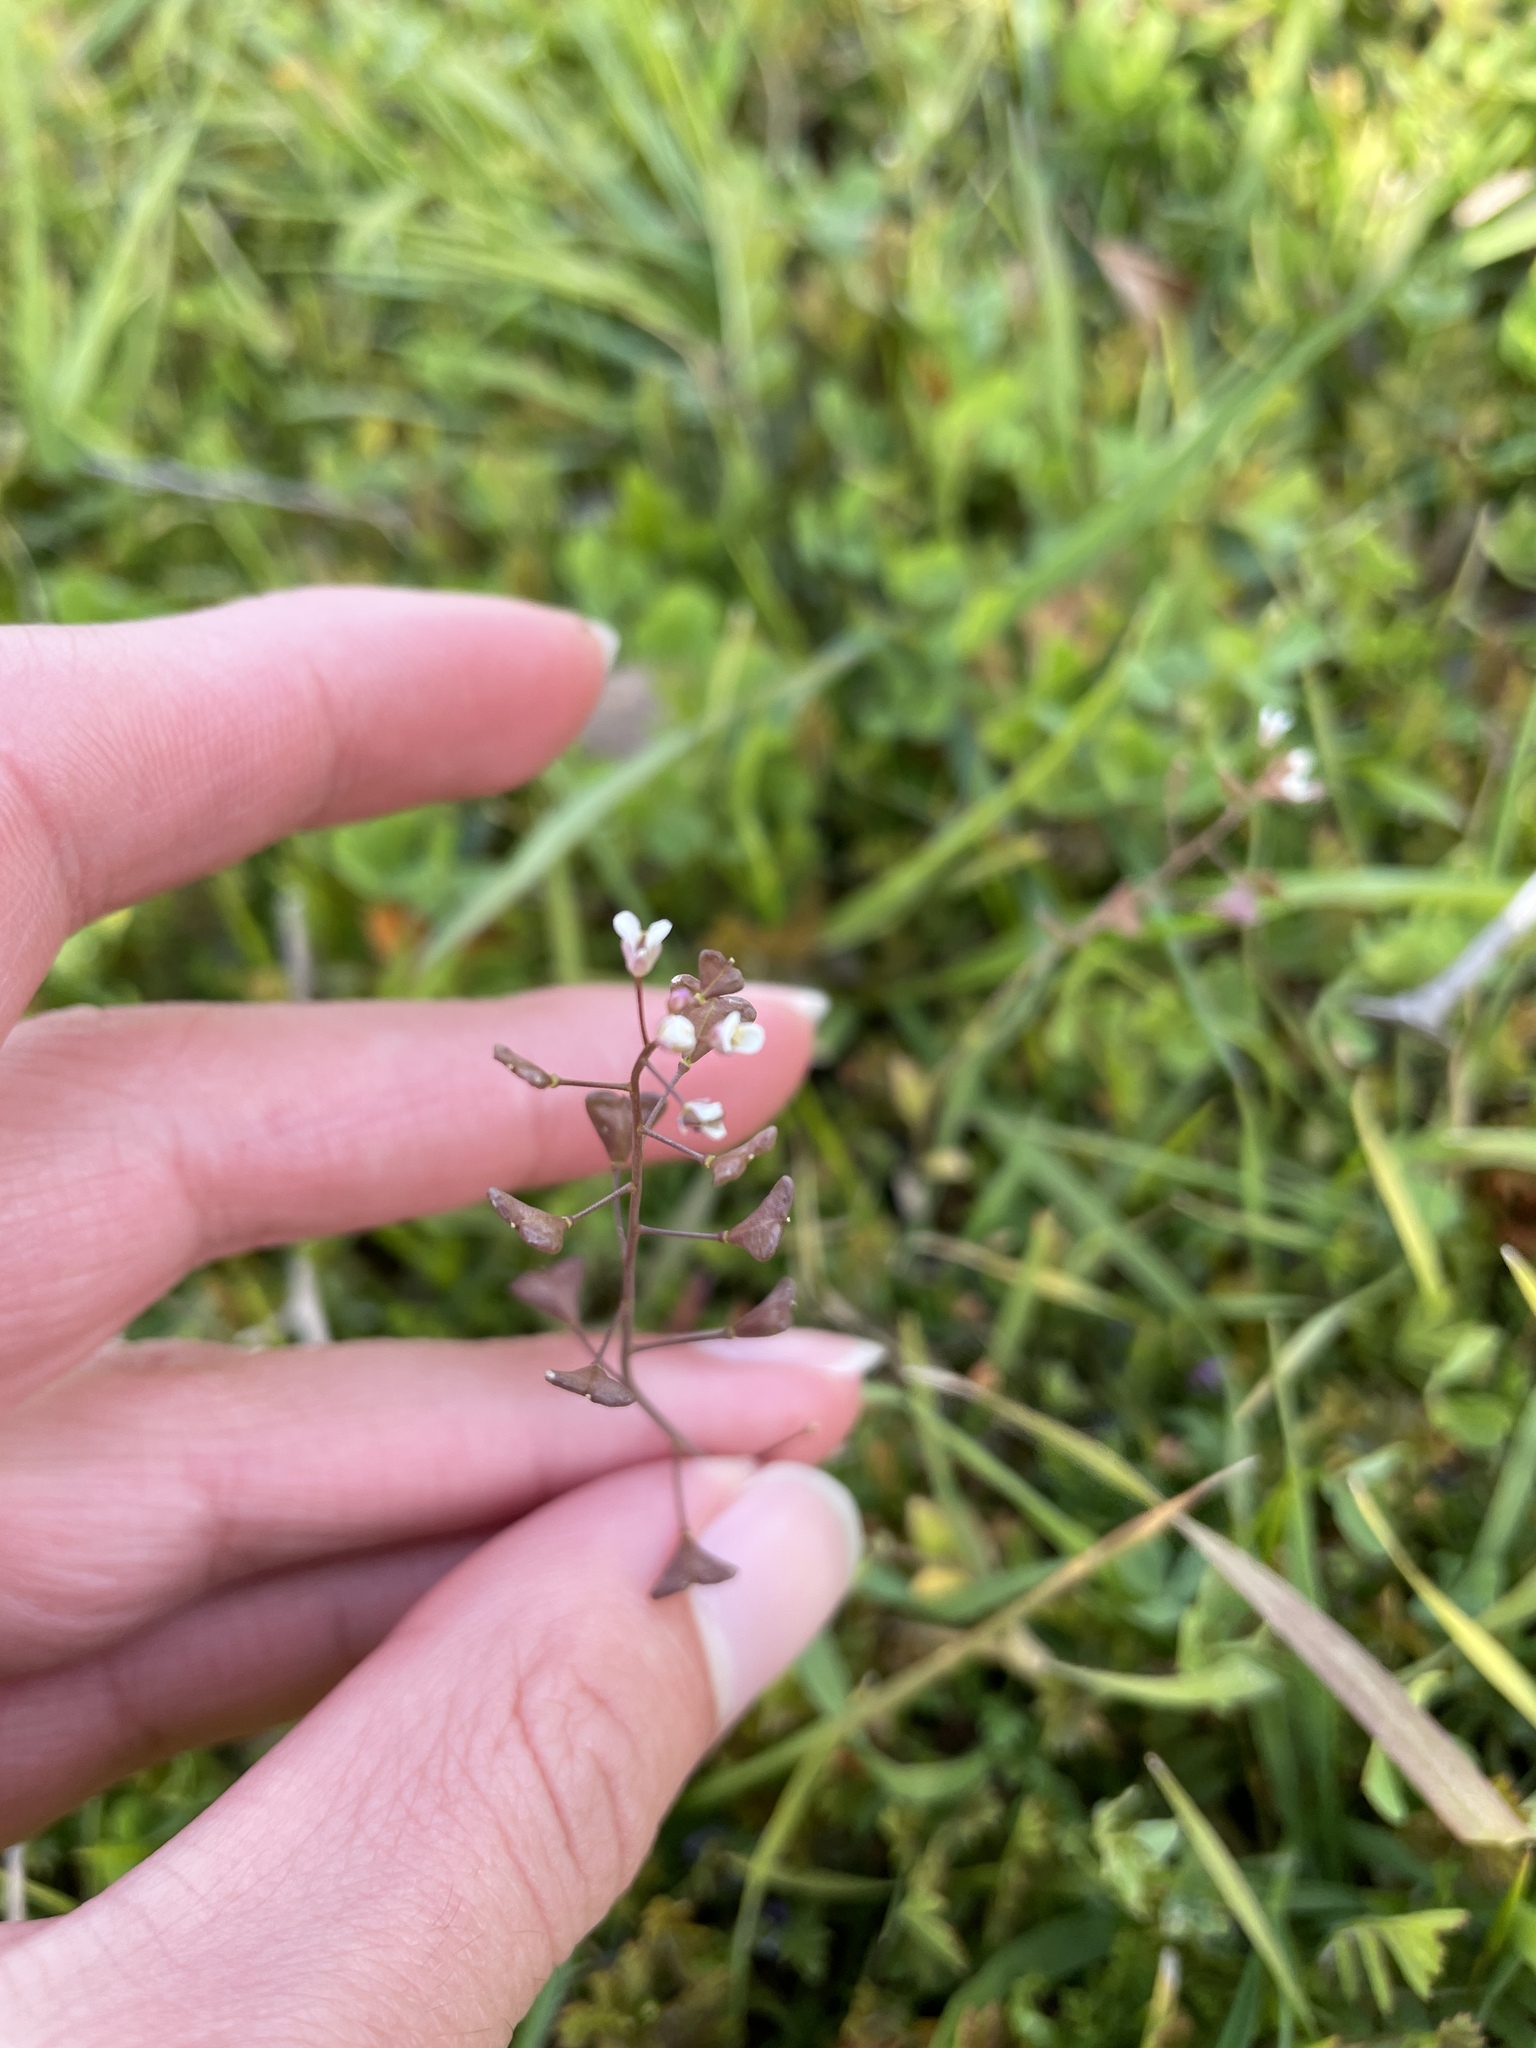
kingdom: Plantae
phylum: Tracheophyta
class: Magnoliopsida
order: Brassicales
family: Brassicaceae
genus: Capsella
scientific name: Capsella bursa-pastoris
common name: Shepherd's purse
